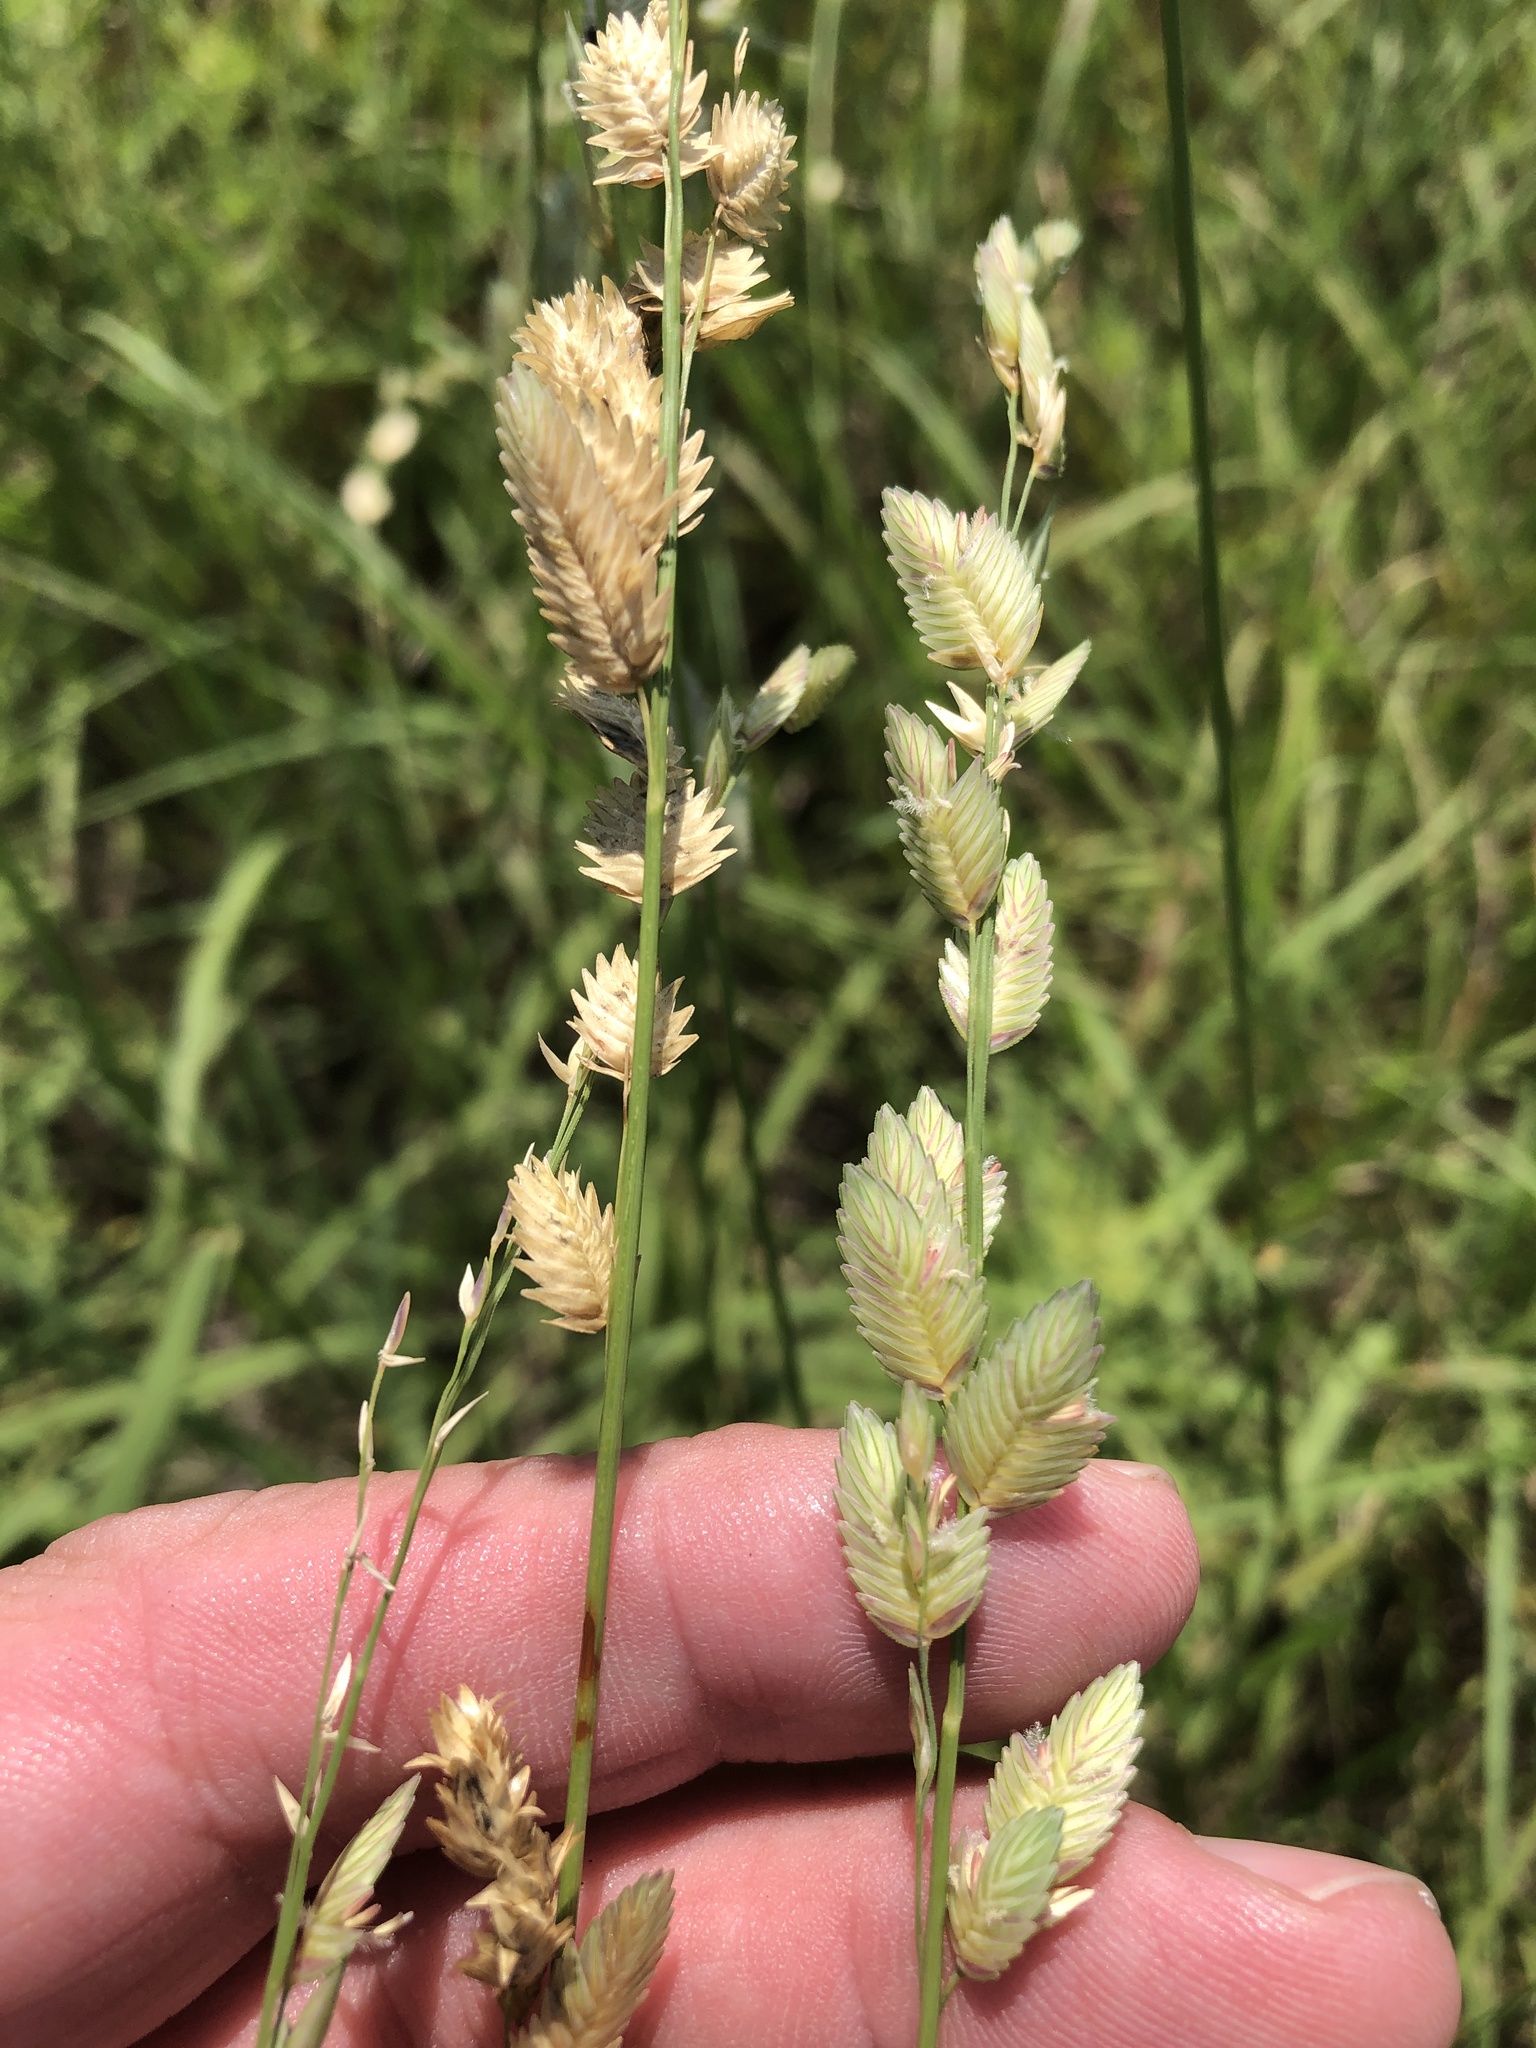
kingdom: Plantae
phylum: Tracheophyta
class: Liliopsida
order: Poales
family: Poaceae
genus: Eragrostis
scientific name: Eragrostis superba
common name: Wilman lovegrass
